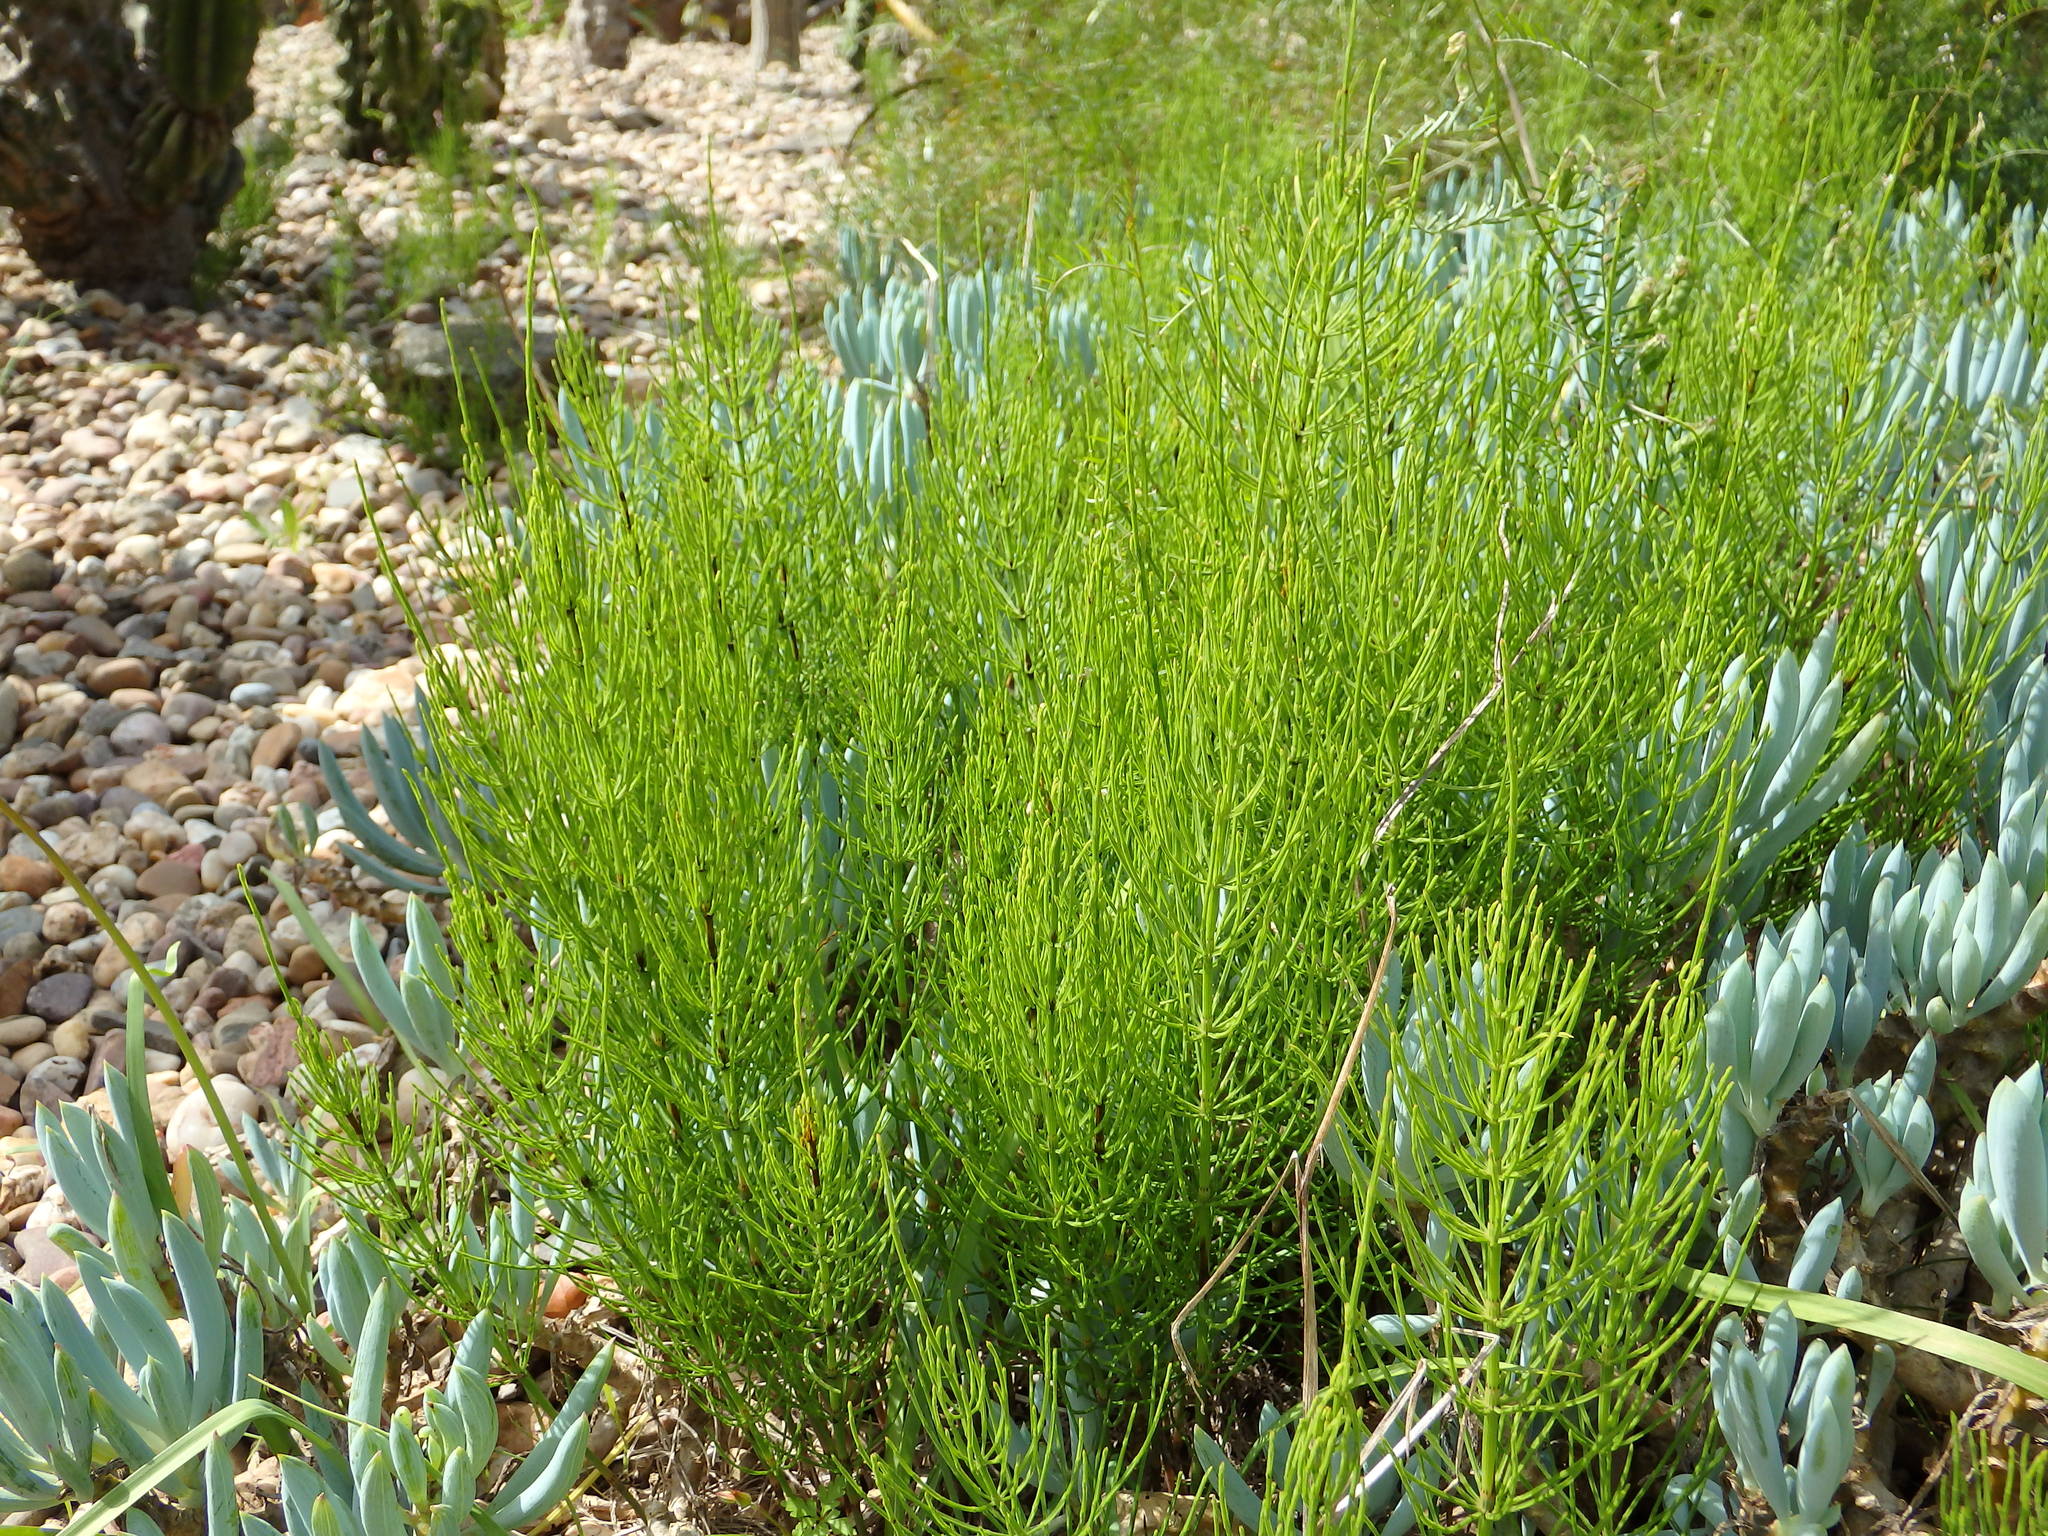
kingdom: Plantae
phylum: Tracheophyta
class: Polypodiopsida
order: Equisetales
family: Equisetaceae
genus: Equisetum
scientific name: Equisetum arvense
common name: Field horsetail
